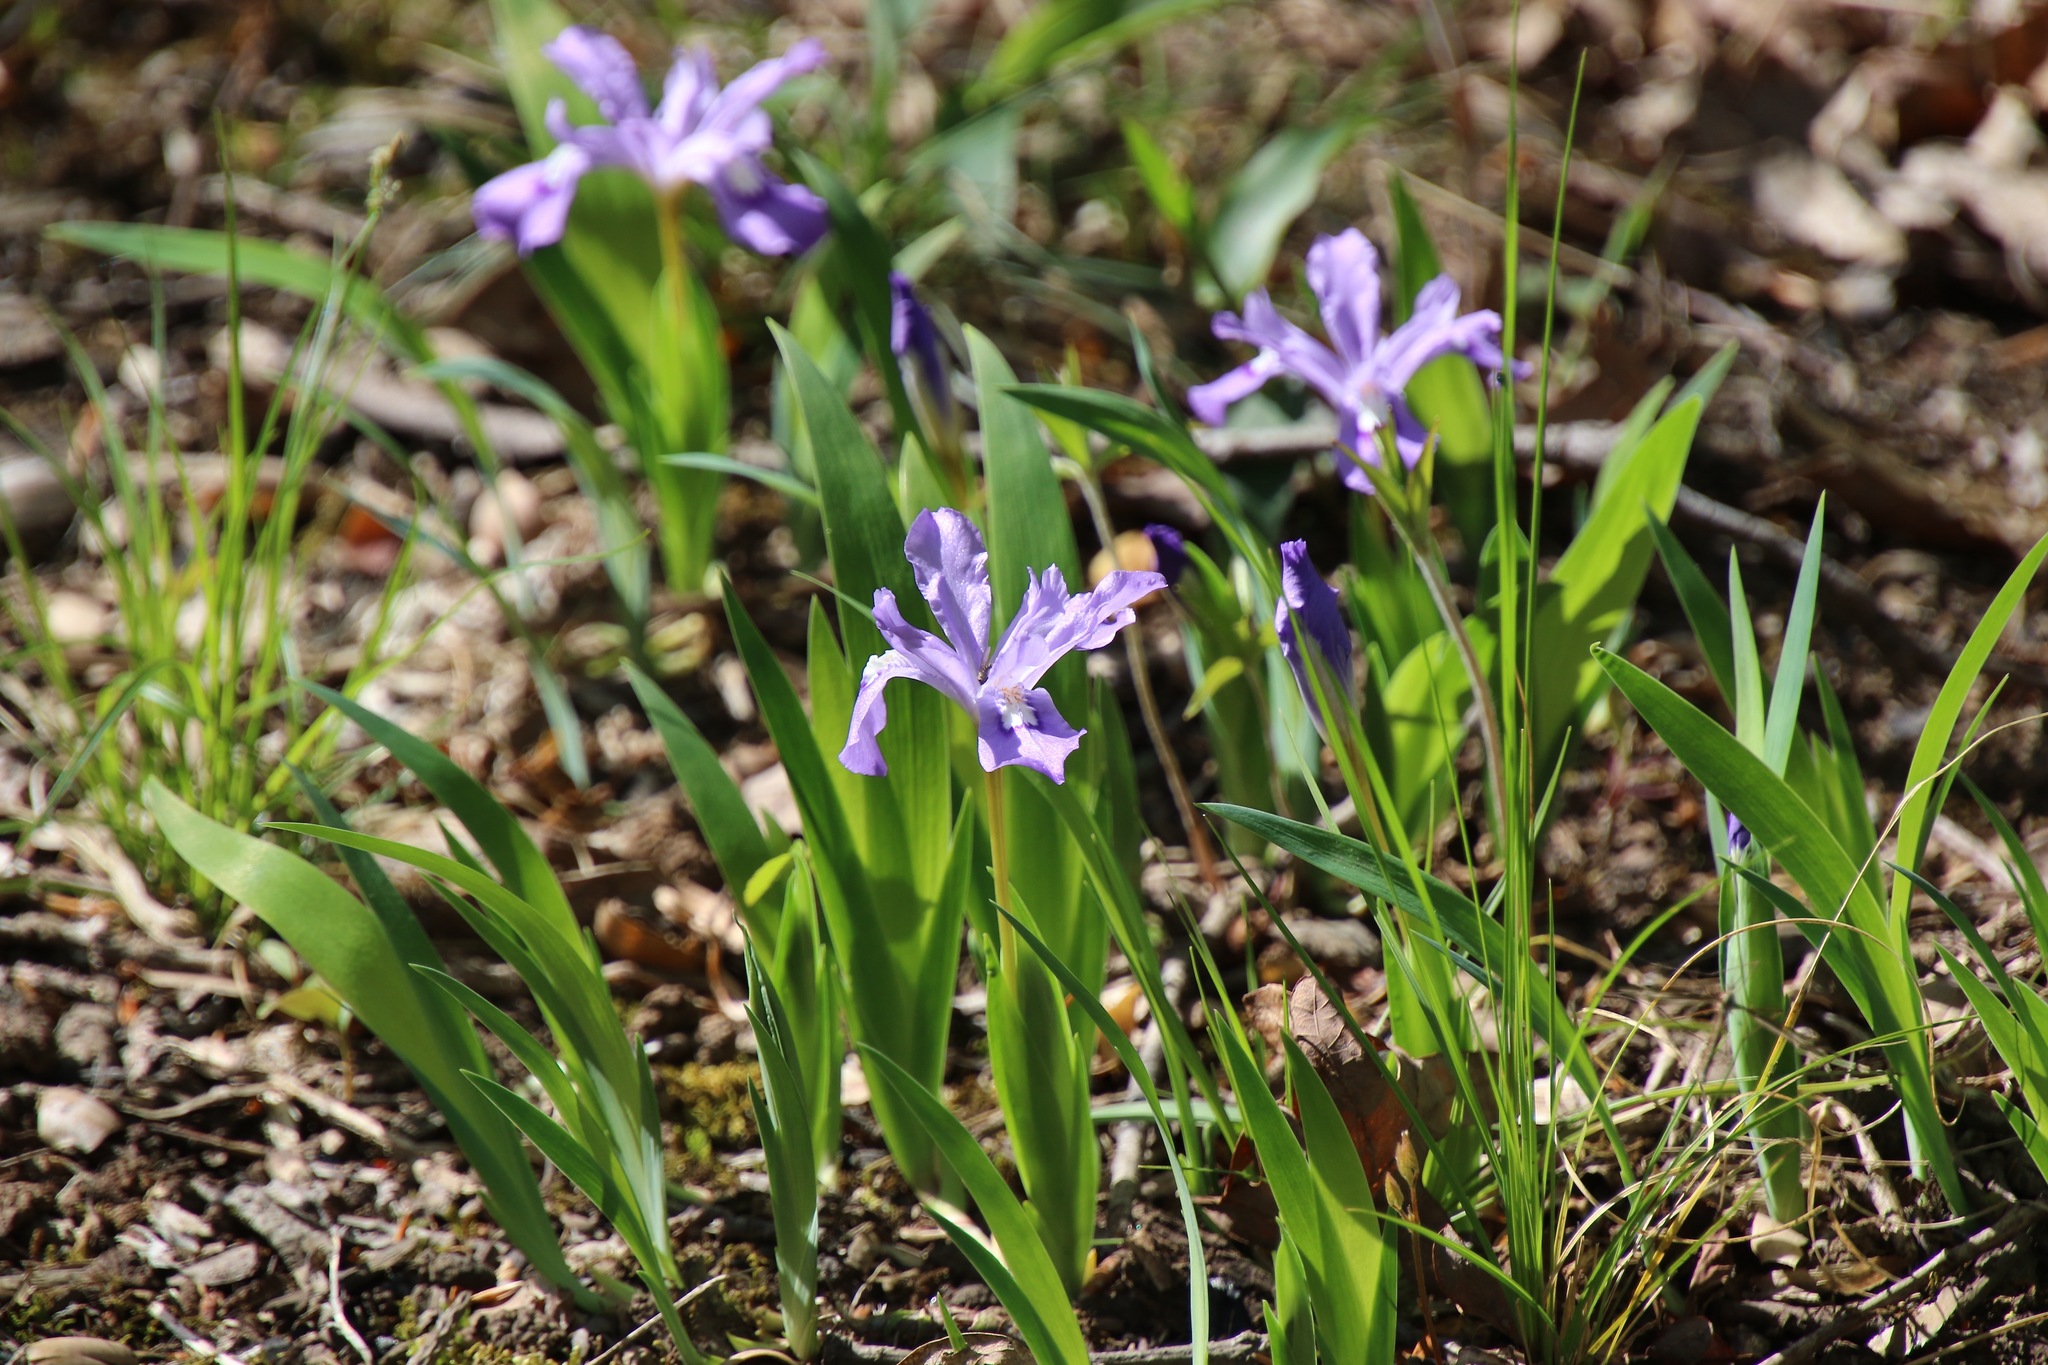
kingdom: Plantae
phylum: Tracheophyta
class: Liliopsida
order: Asparagales
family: Iridaceae
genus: Iris
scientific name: Iris cristata
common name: Crested iris
